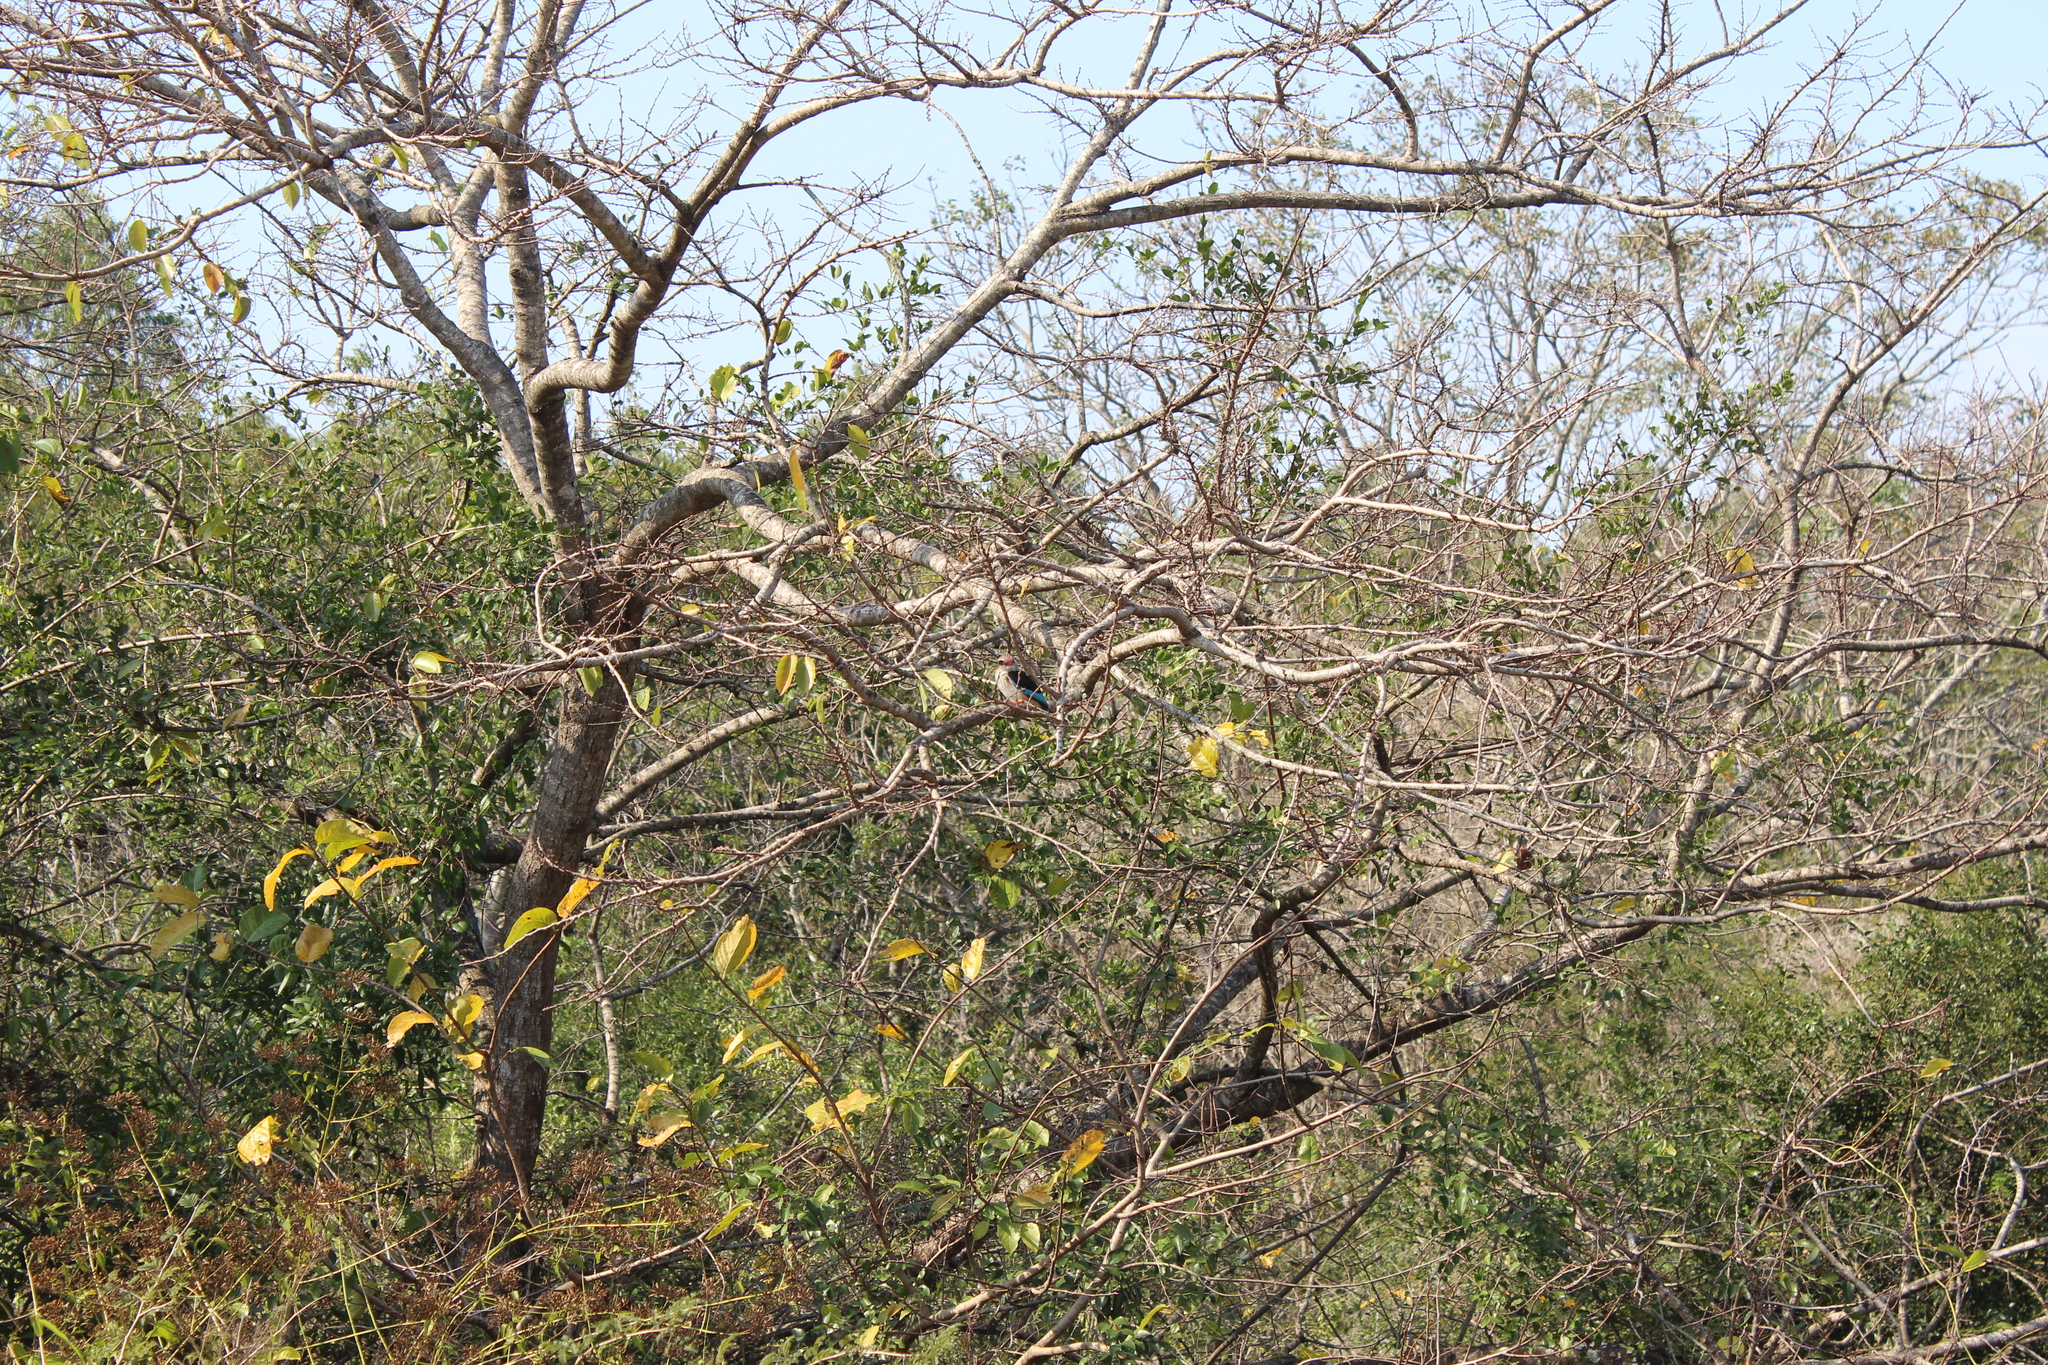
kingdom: Animalia
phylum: Chordata
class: Aves
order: Coraciiformes
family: Alcedinidae
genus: Halcyon
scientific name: Halcyon albiventris
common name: Brown-hooded kingfisher
